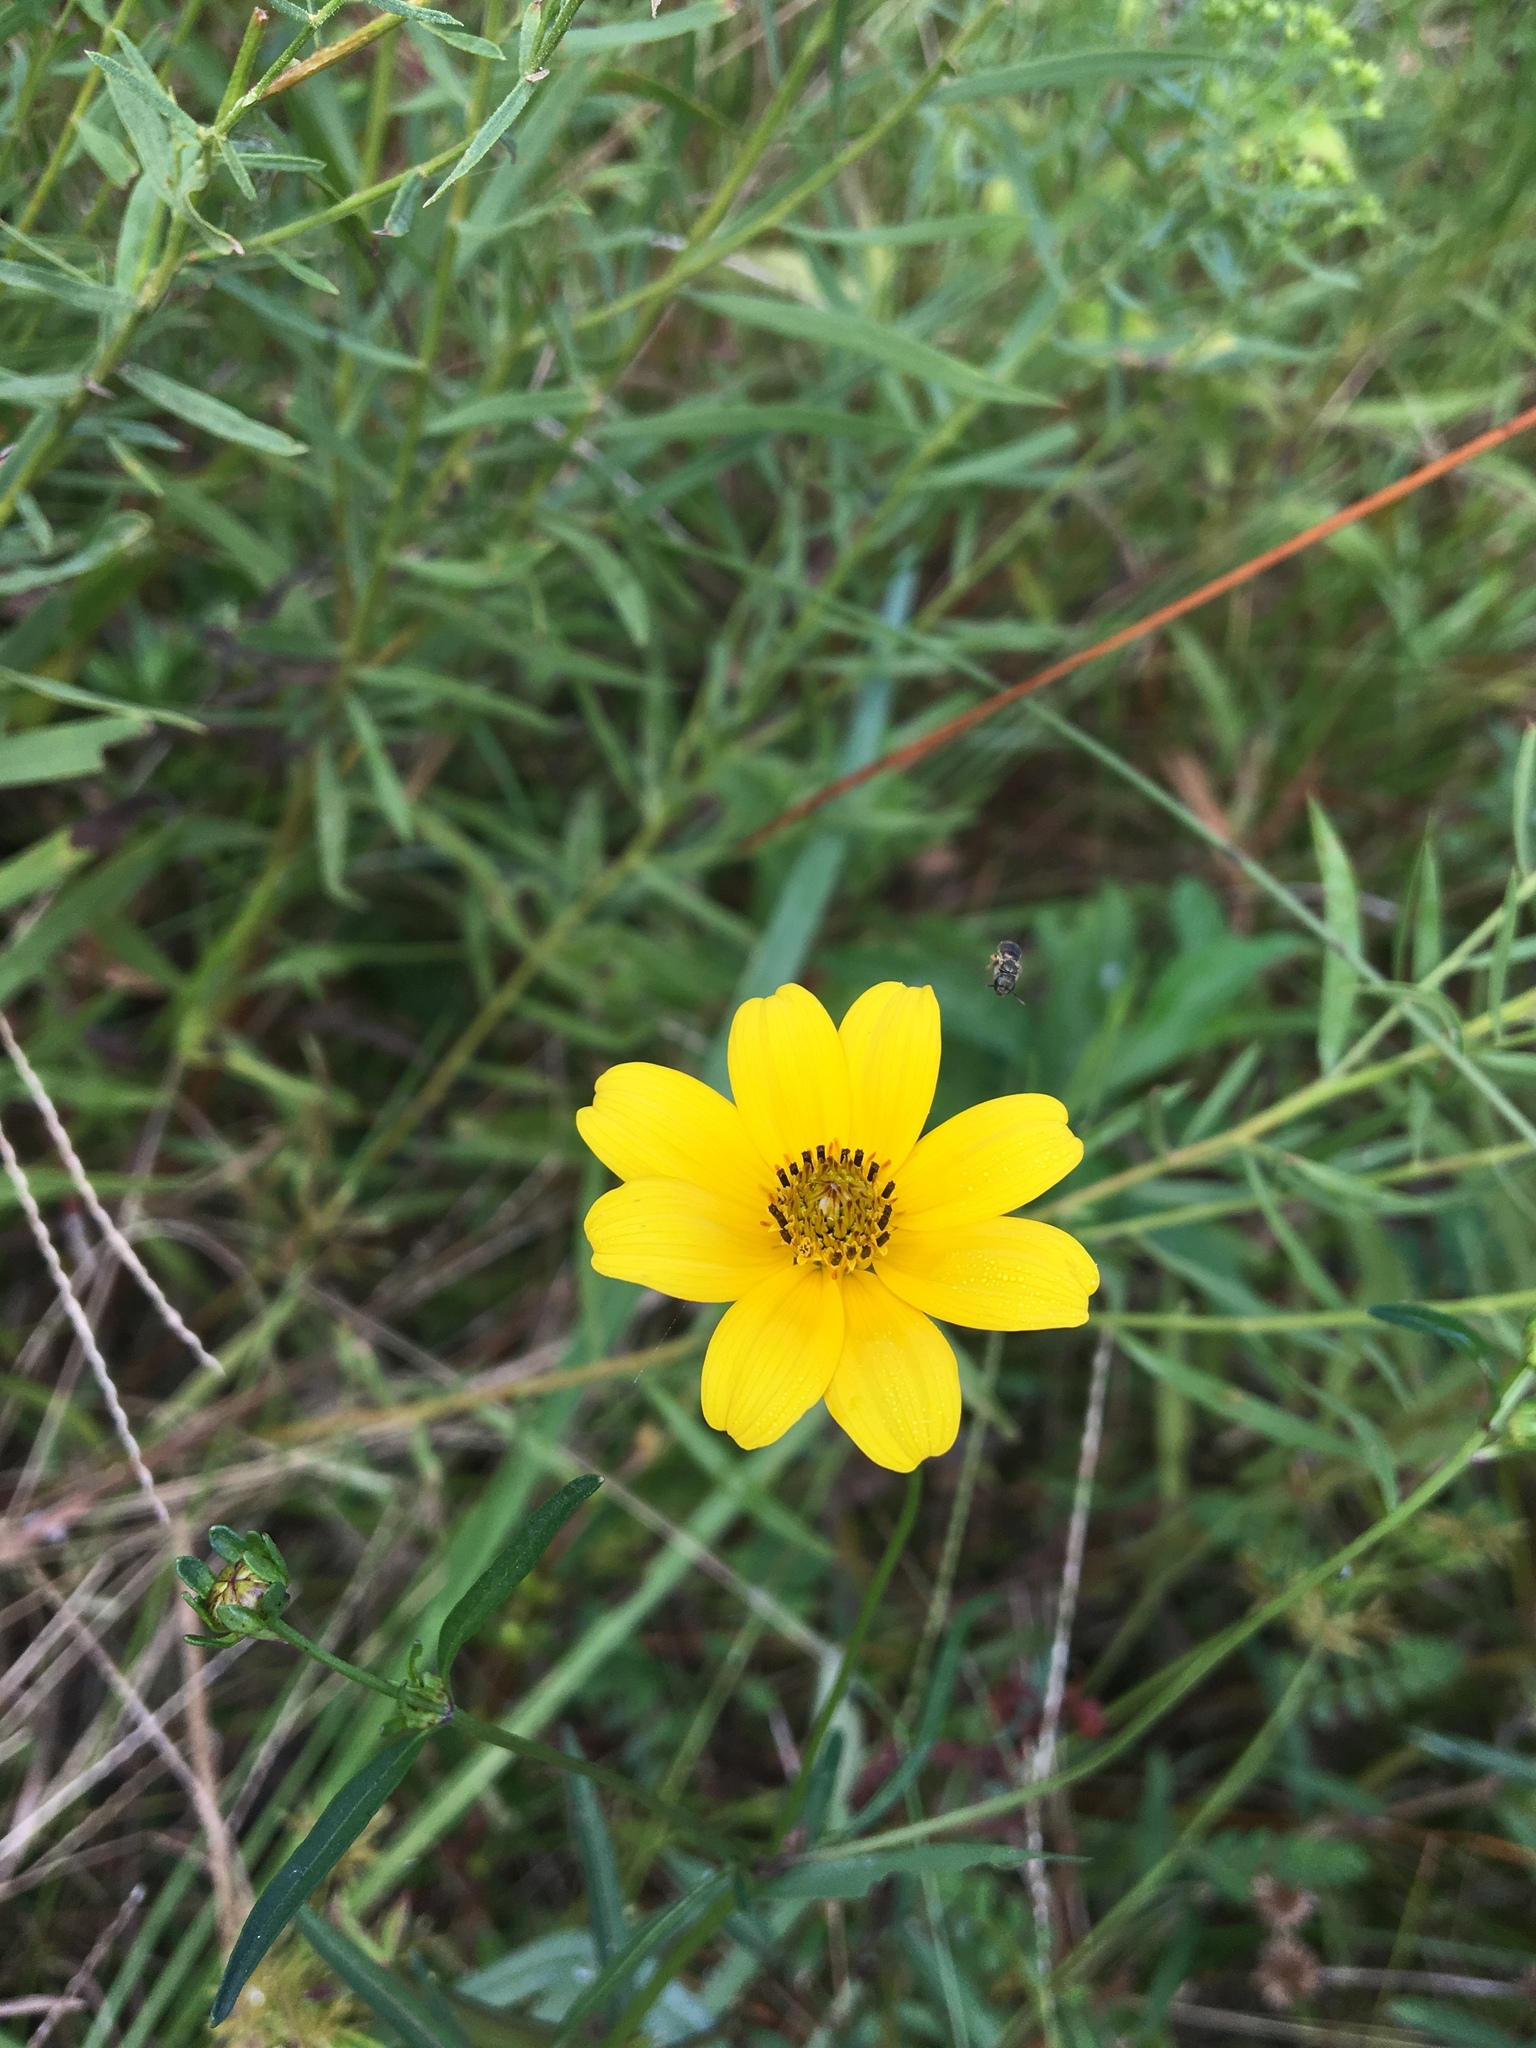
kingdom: Plantae
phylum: Tracheophyta
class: Magnoliopsida
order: Asterales
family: Asteraceae
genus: Bidens
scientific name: Bidens mitis
